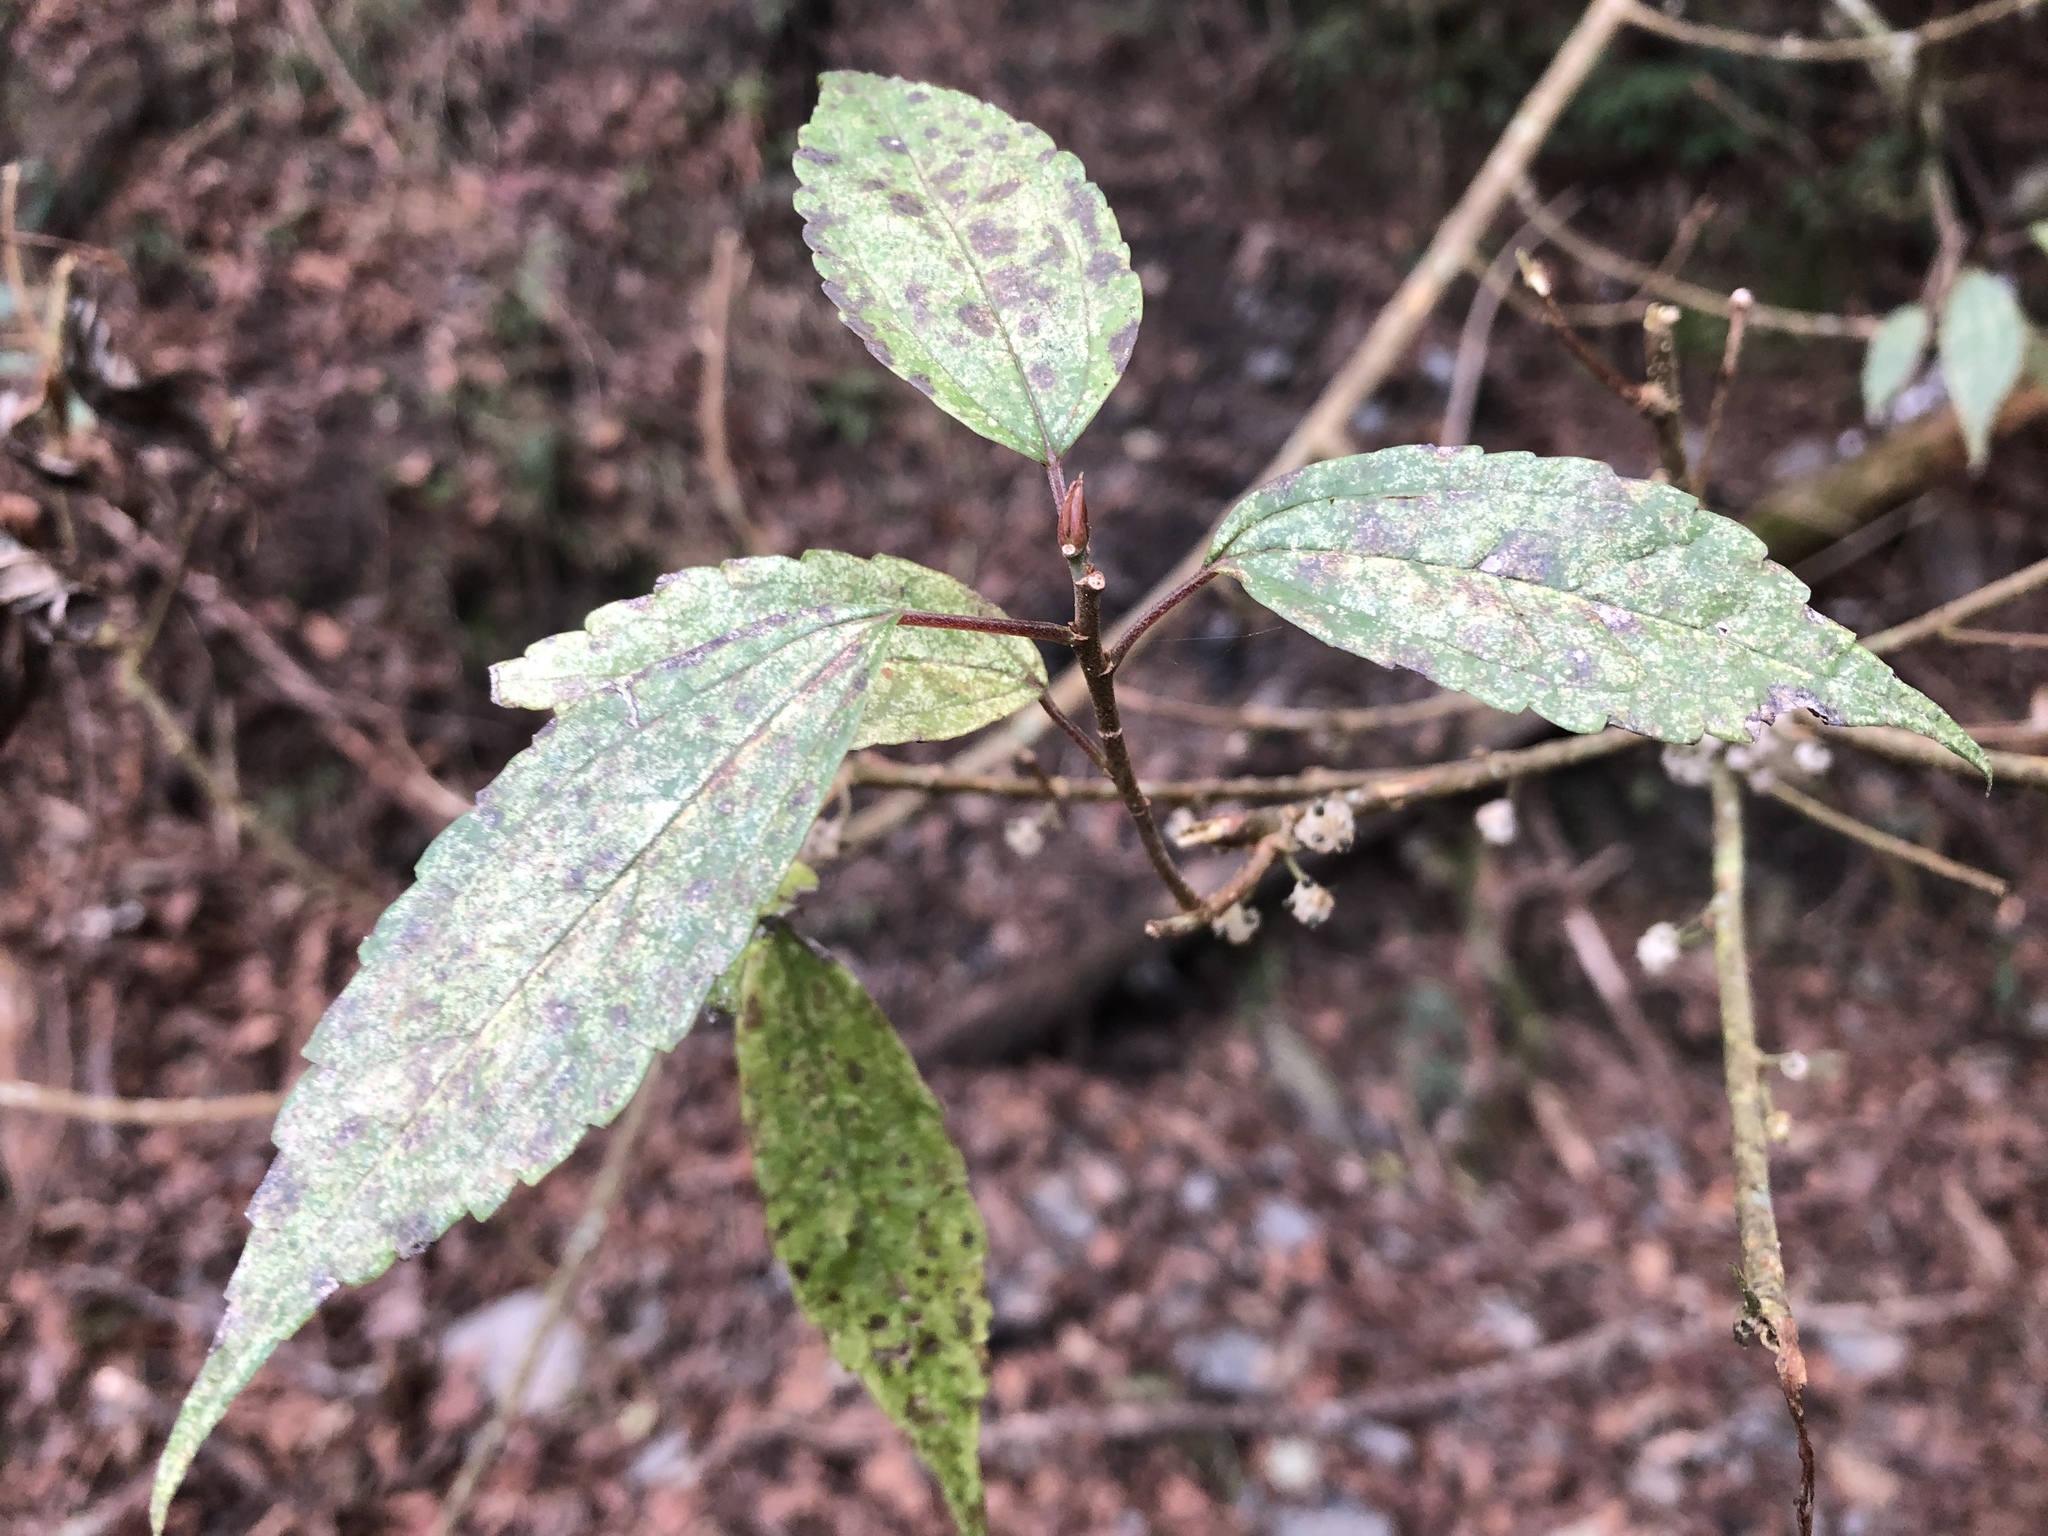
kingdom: Plantae
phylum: Tracheophyta
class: Magnoliopsida
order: Rosales
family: Urticaceae
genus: Oreocnide
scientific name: Oreocnide pedunculata
